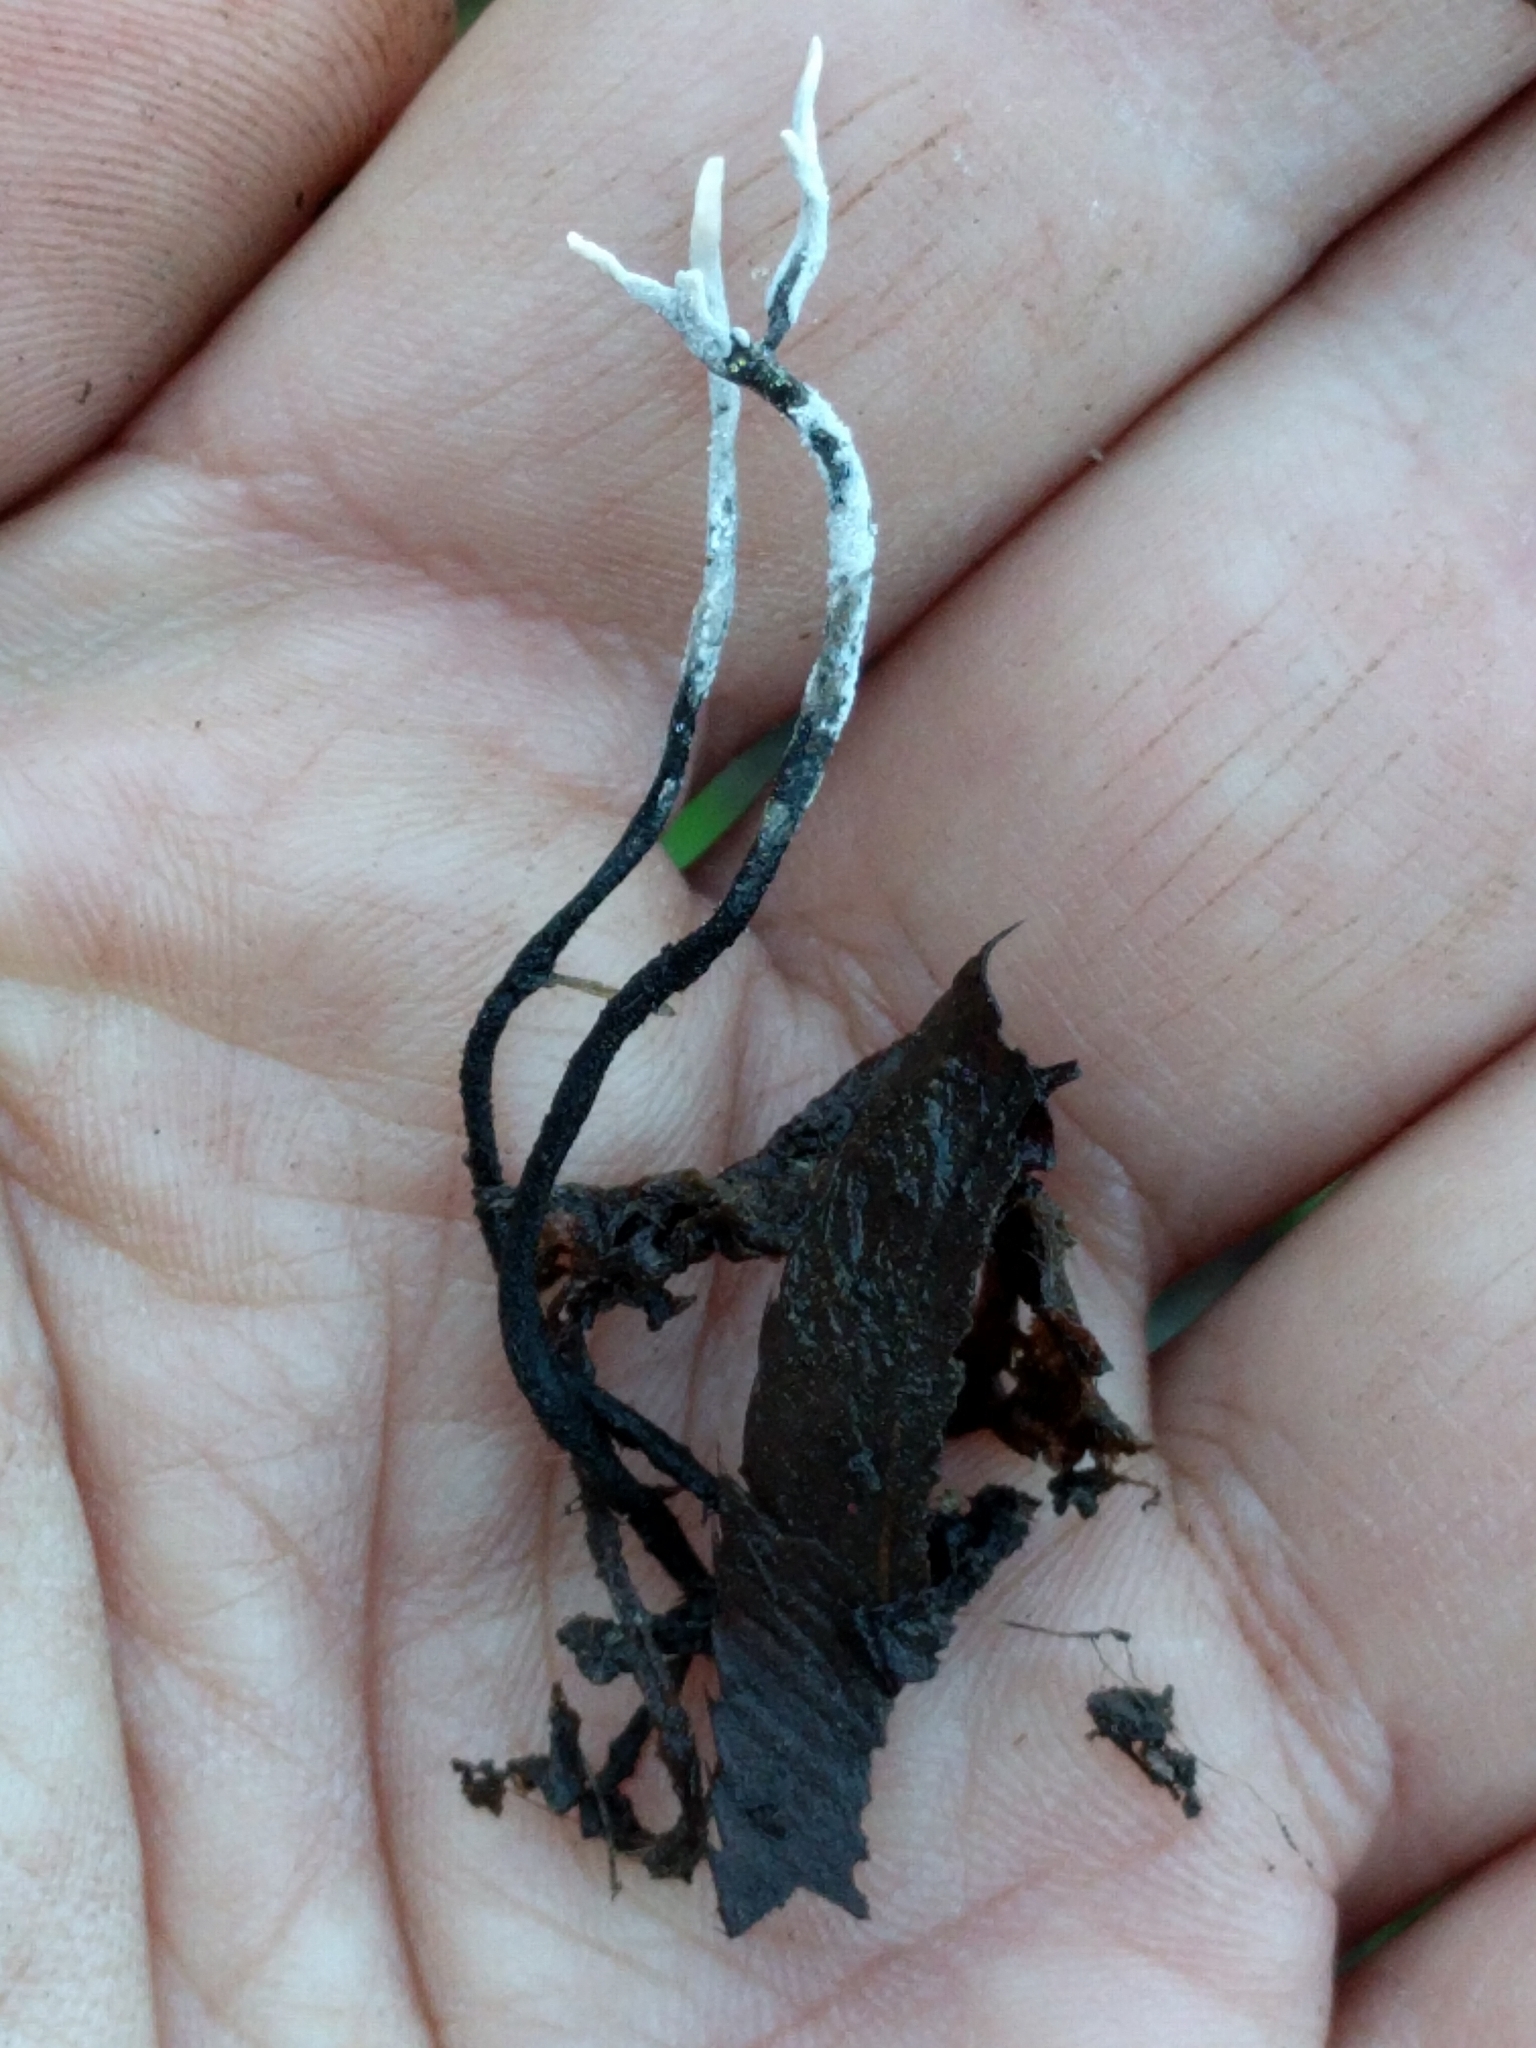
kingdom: Fungi
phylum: Ascomycota
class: Sordariomycetes
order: Xylariales
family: Xylariaceae
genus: Xylaria
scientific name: Xylaria hypoxylon
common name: Candle-snuff fungus
